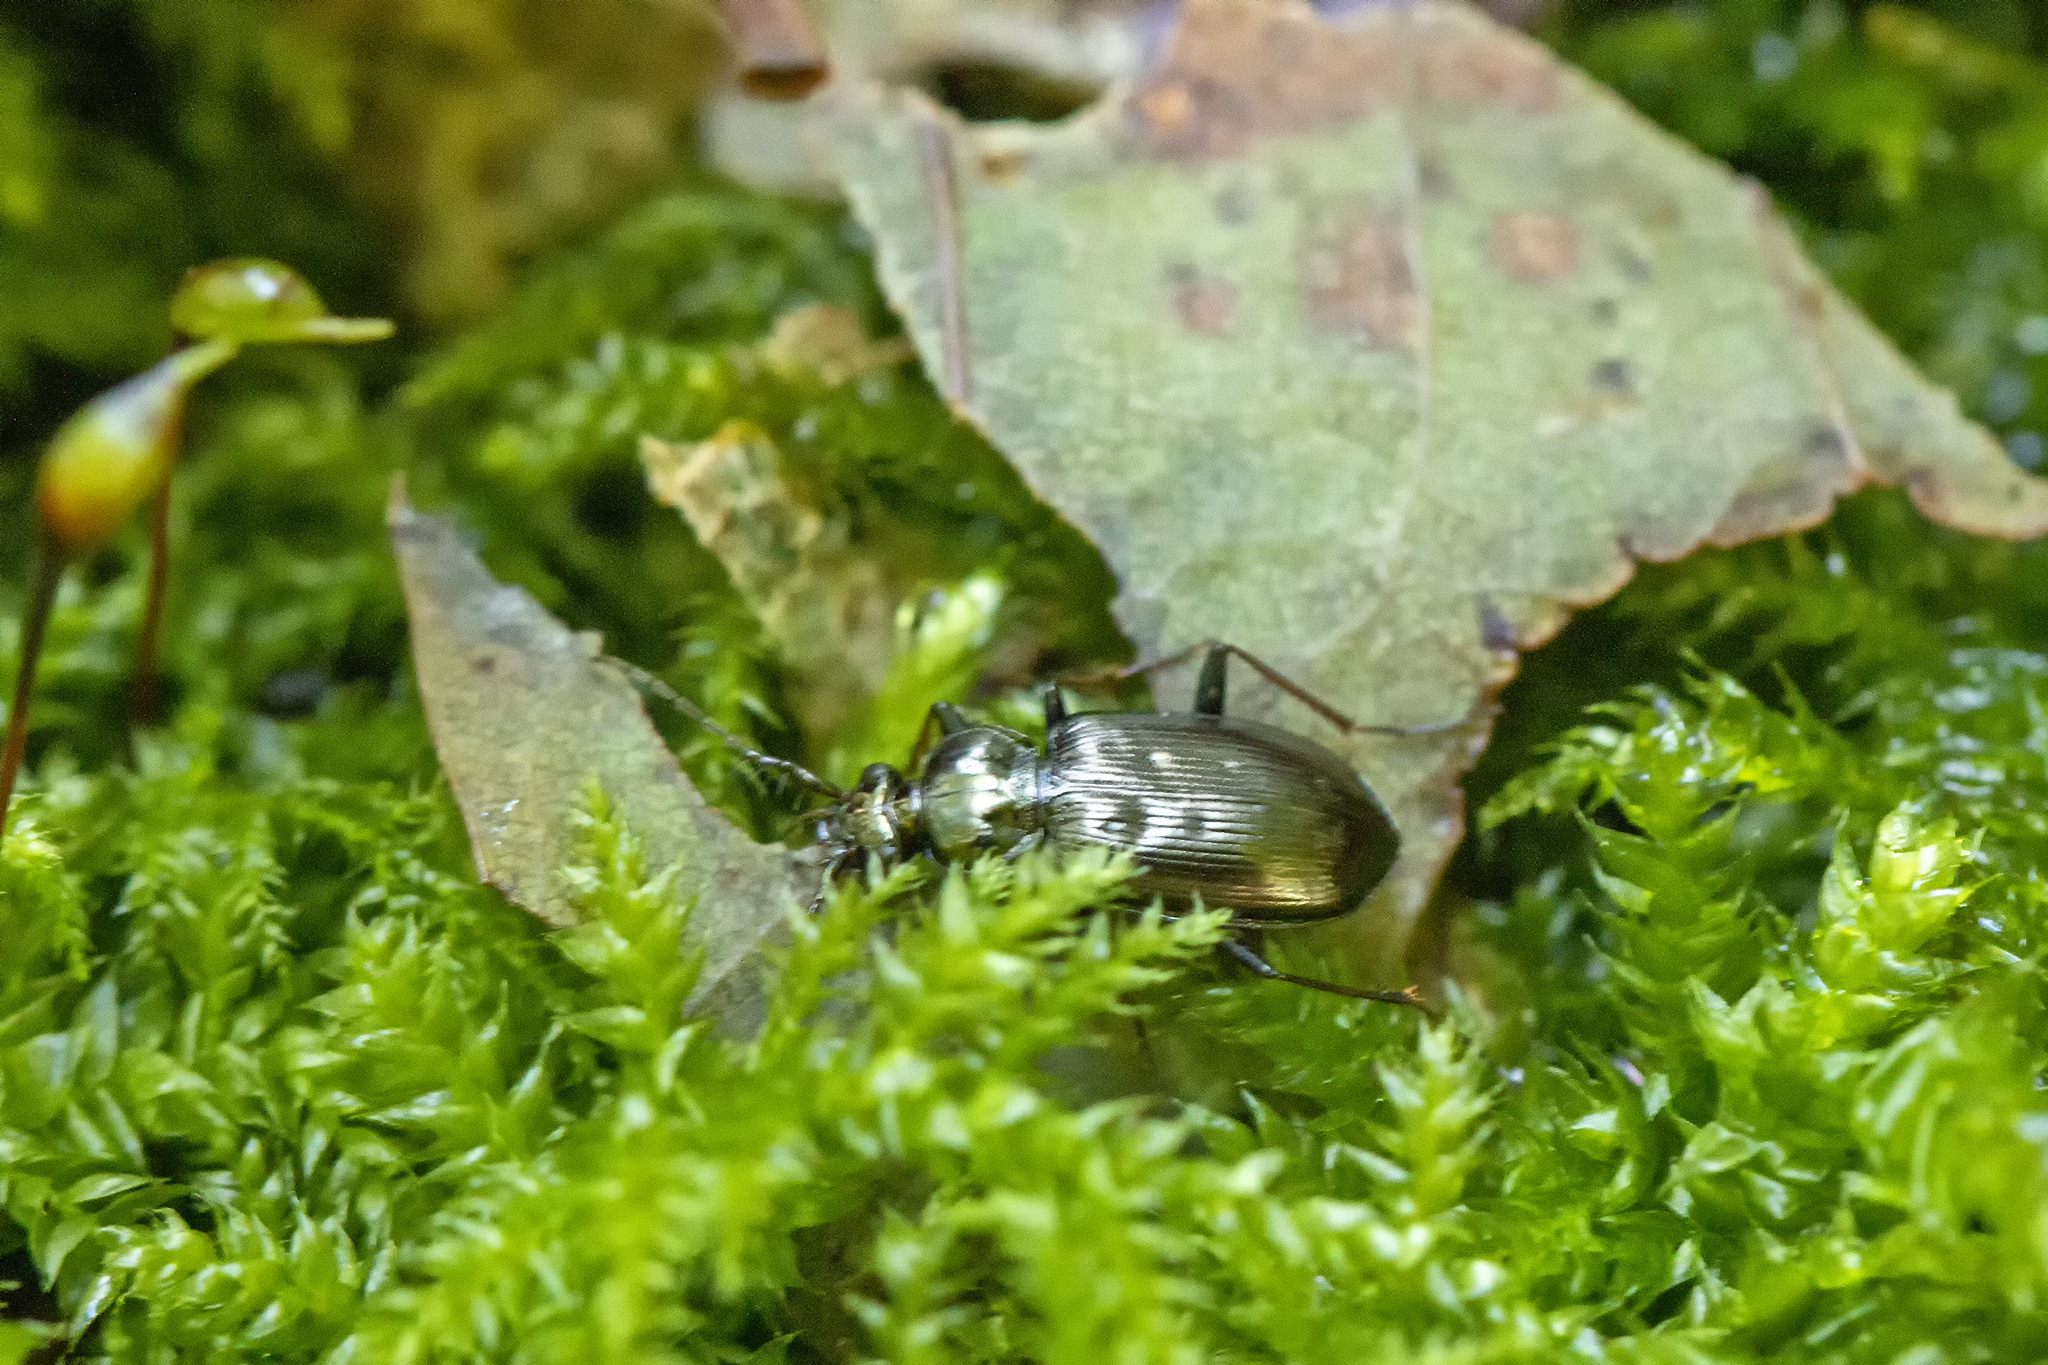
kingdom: Animalia
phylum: Arthropoda
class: Insecta
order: Coleoptera
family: Carabidae
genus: Loricera
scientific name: Loricera pilicornis
